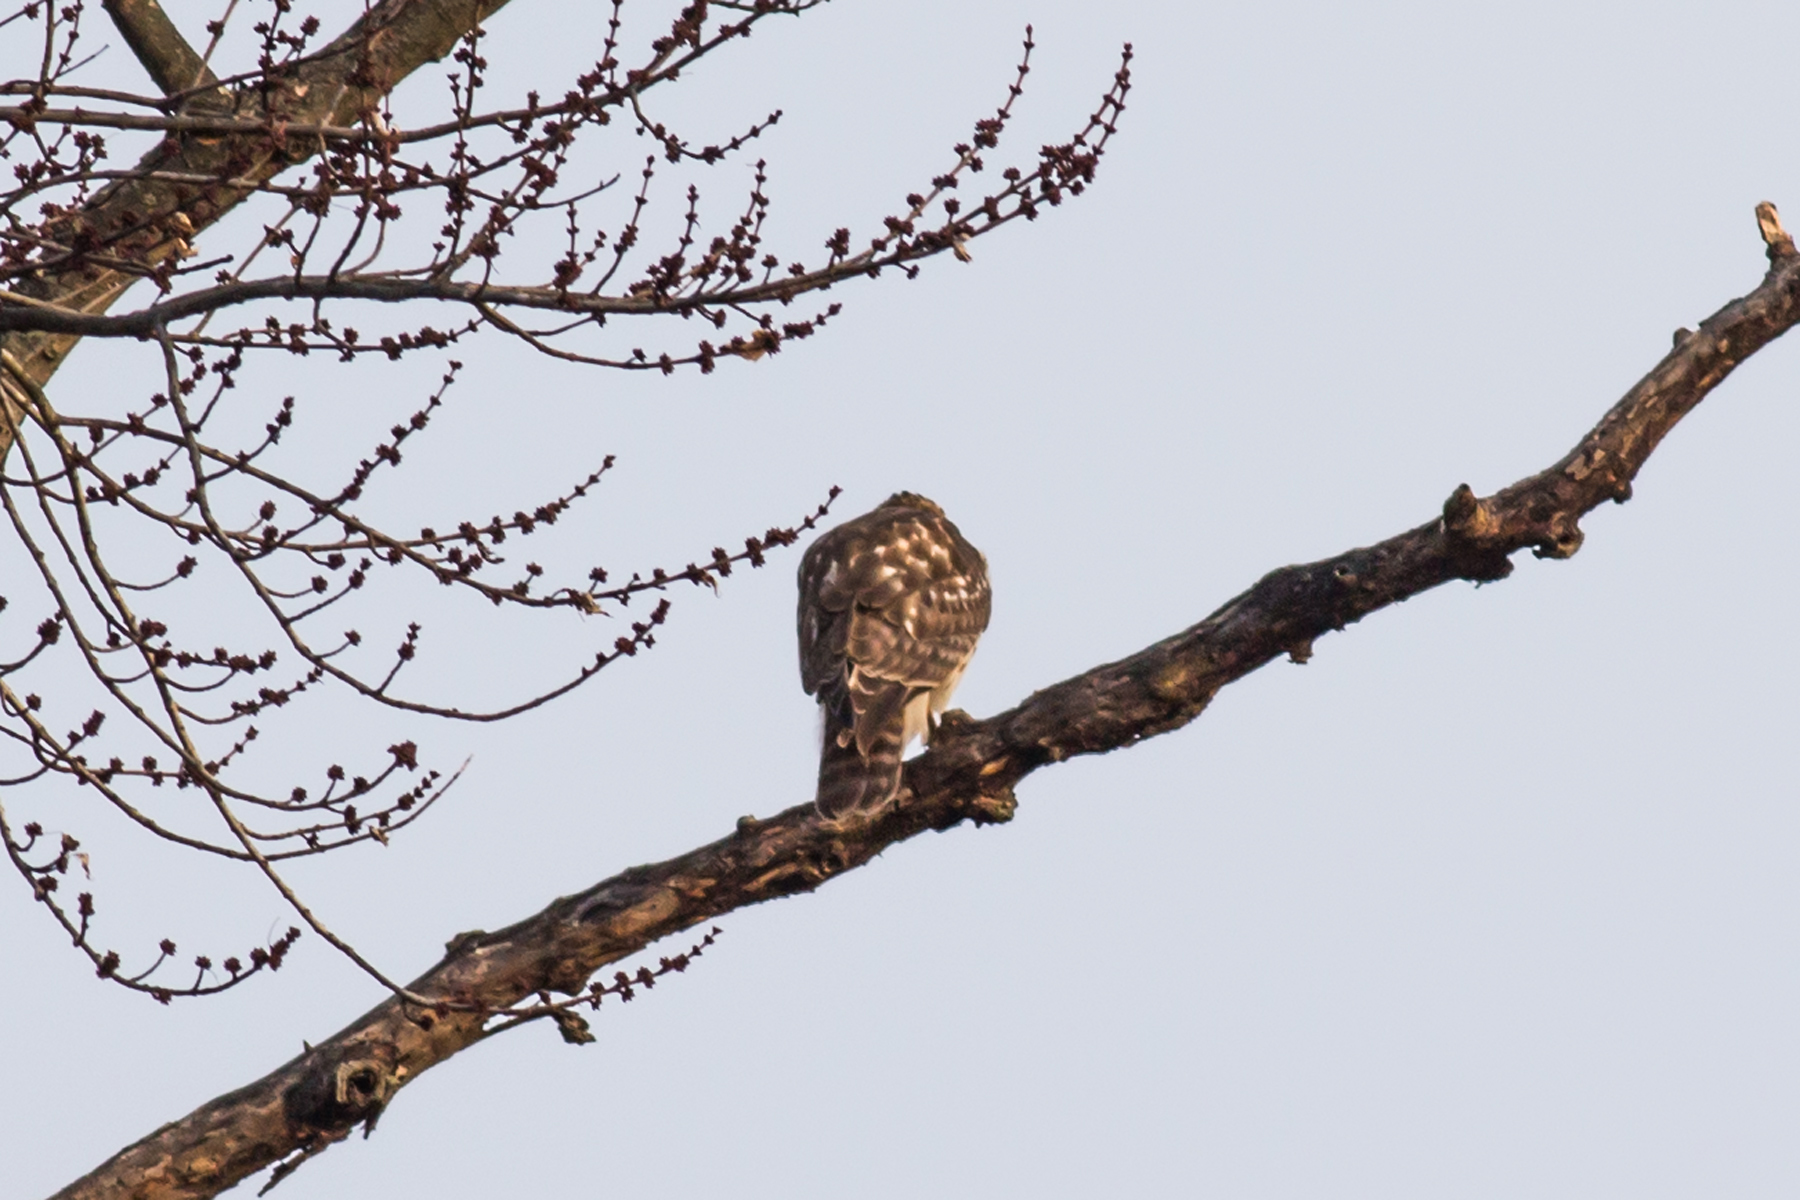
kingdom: Animalia
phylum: Chordata
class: Aves
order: Accipitriformes
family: Accipitridae
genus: Buteo
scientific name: Buteo lineatus
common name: Red-shouldered hawk
